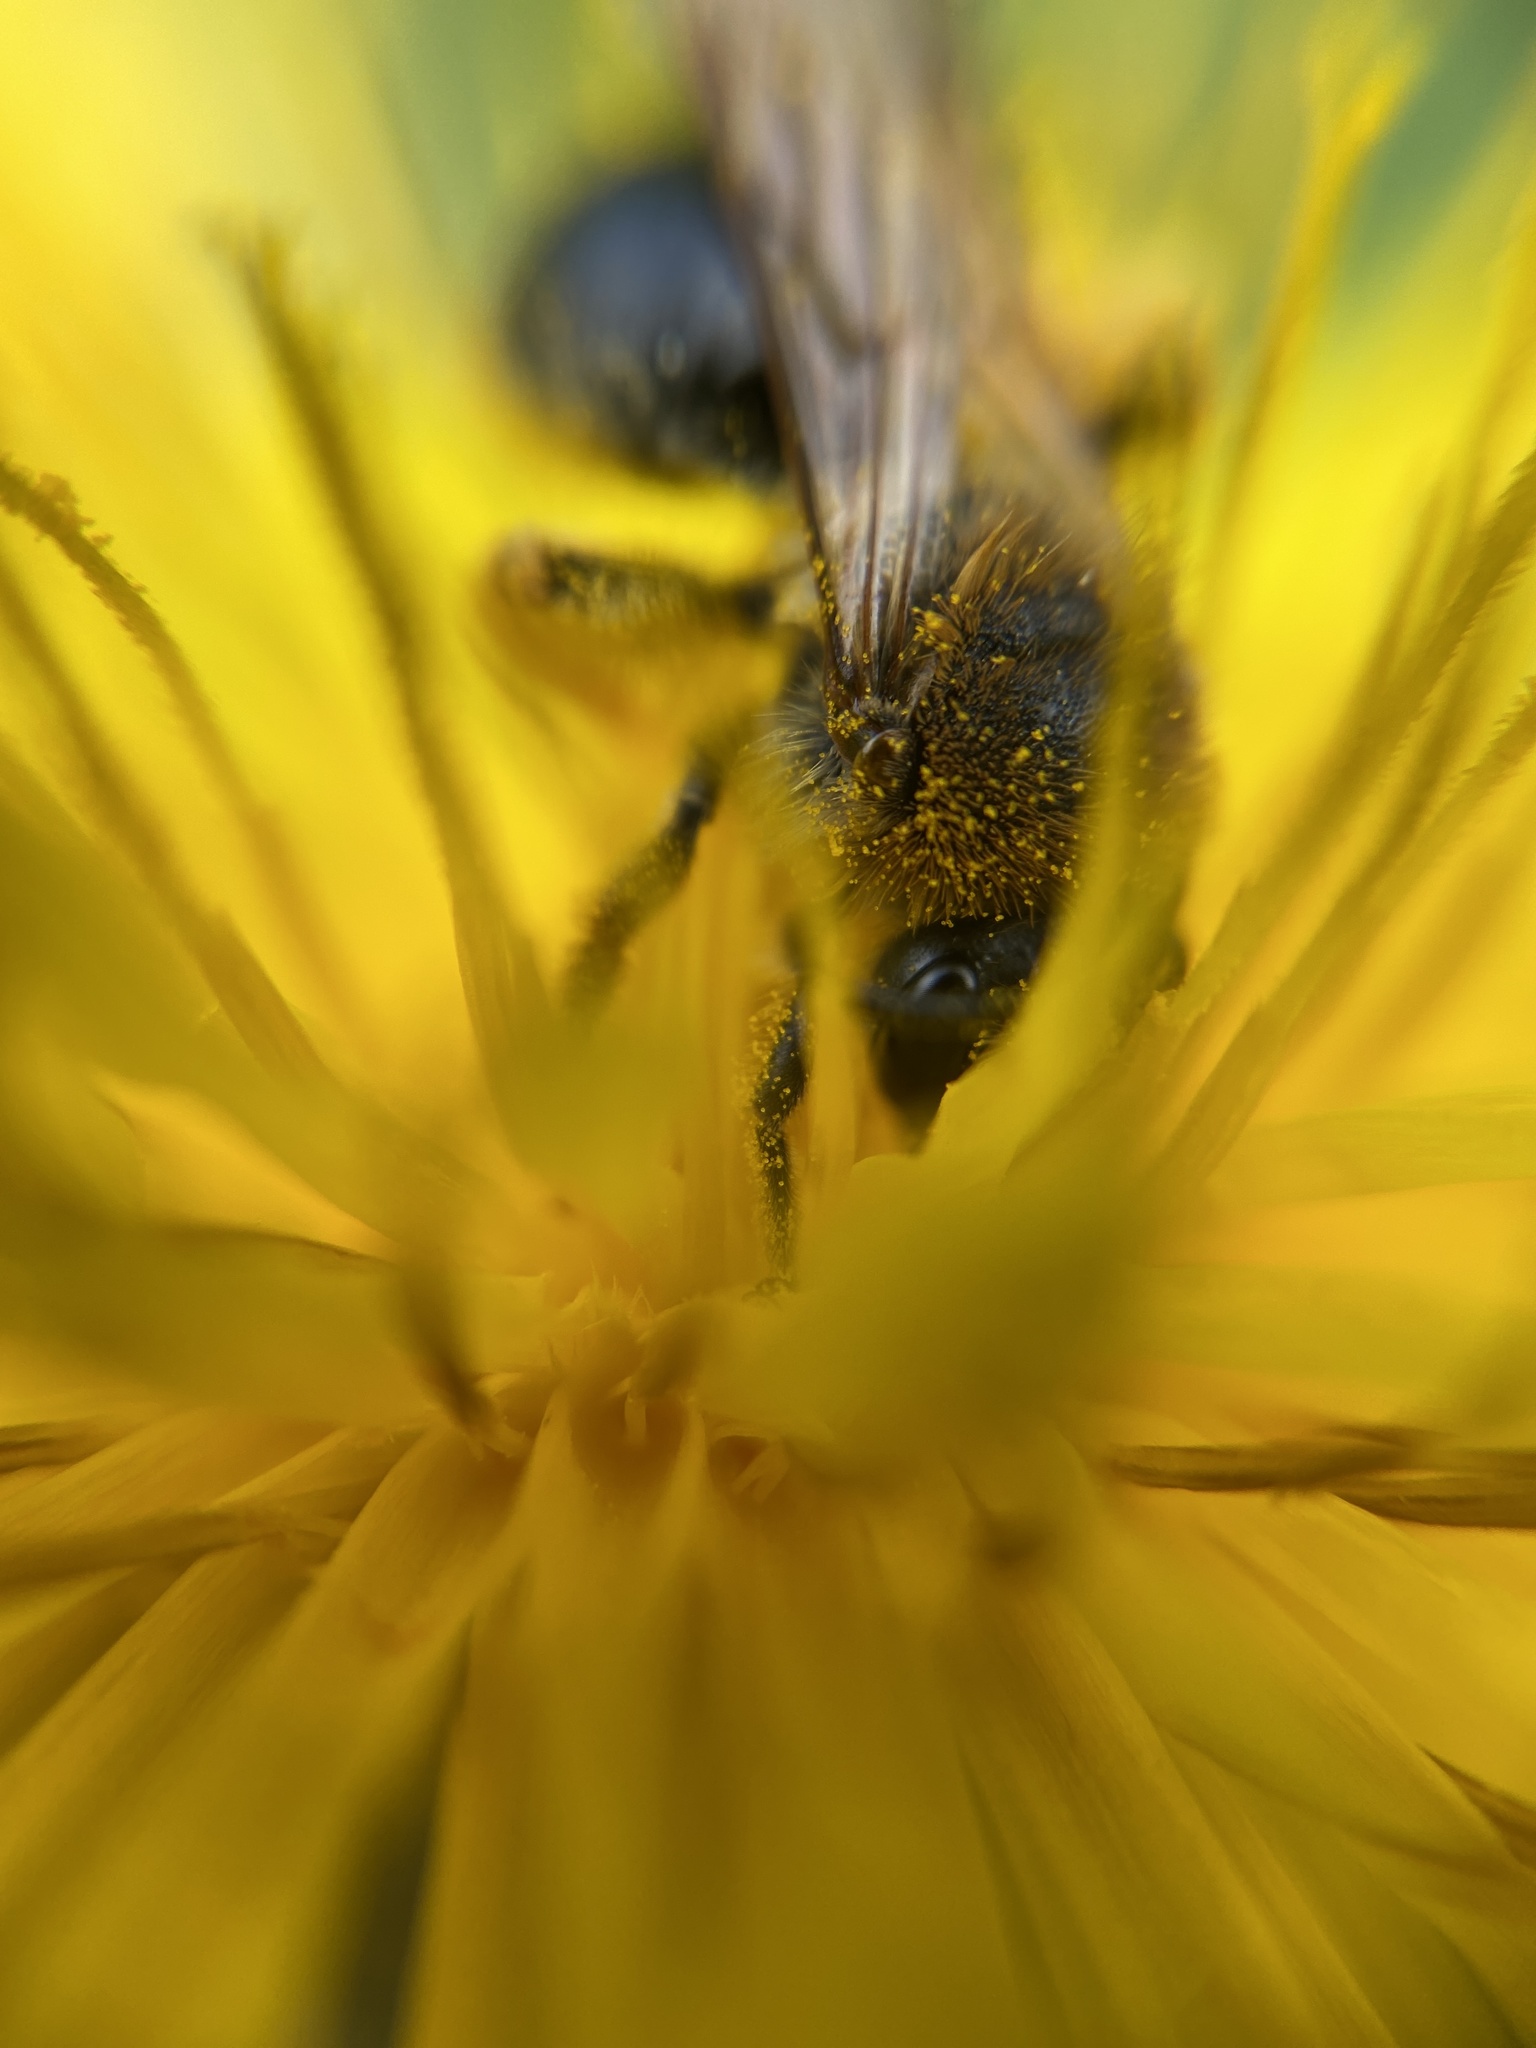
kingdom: Animalia
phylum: Arthropoda
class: Insecta
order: Hymenoptera
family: Andrenidae
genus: Andrena
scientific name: Andrena haemorrhoa
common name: Early mining bee
